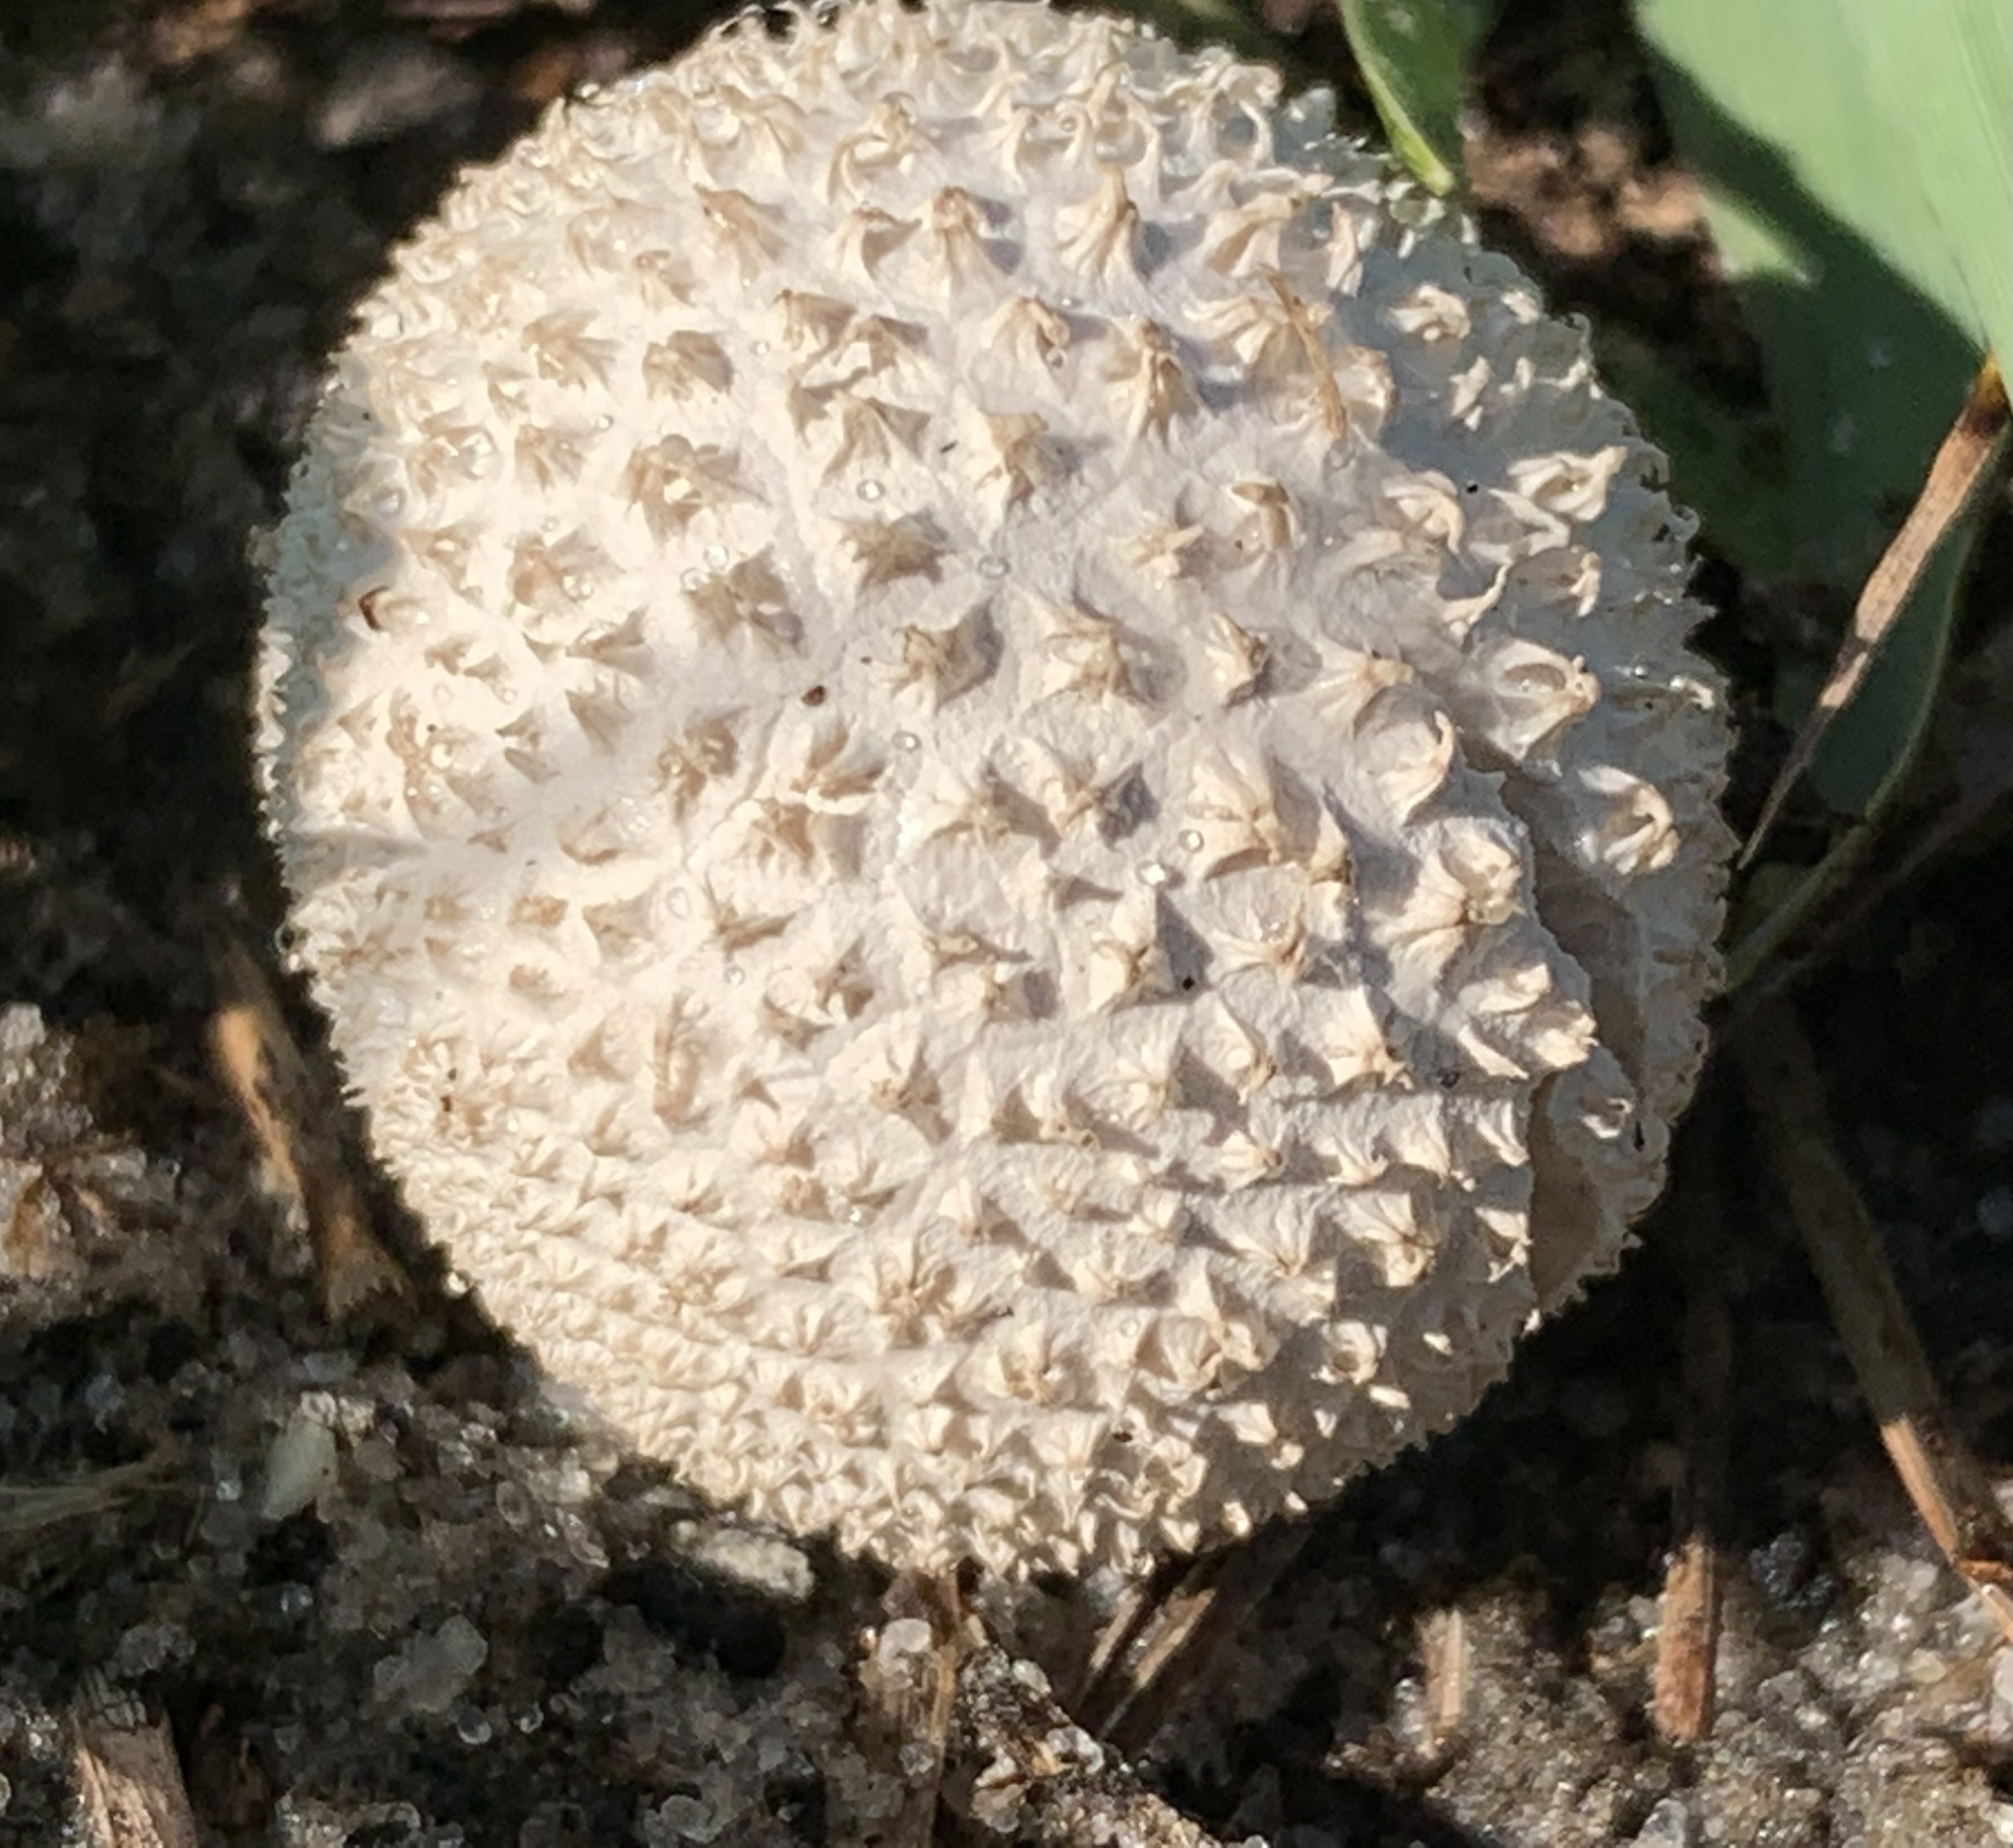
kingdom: Fungi
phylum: Basidiomycota
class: Agaricomycetes
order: Agaricales
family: Agaricaceae
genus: Lycoperdon
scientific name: Lycoperdon marginatum
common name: Peeling puffball
